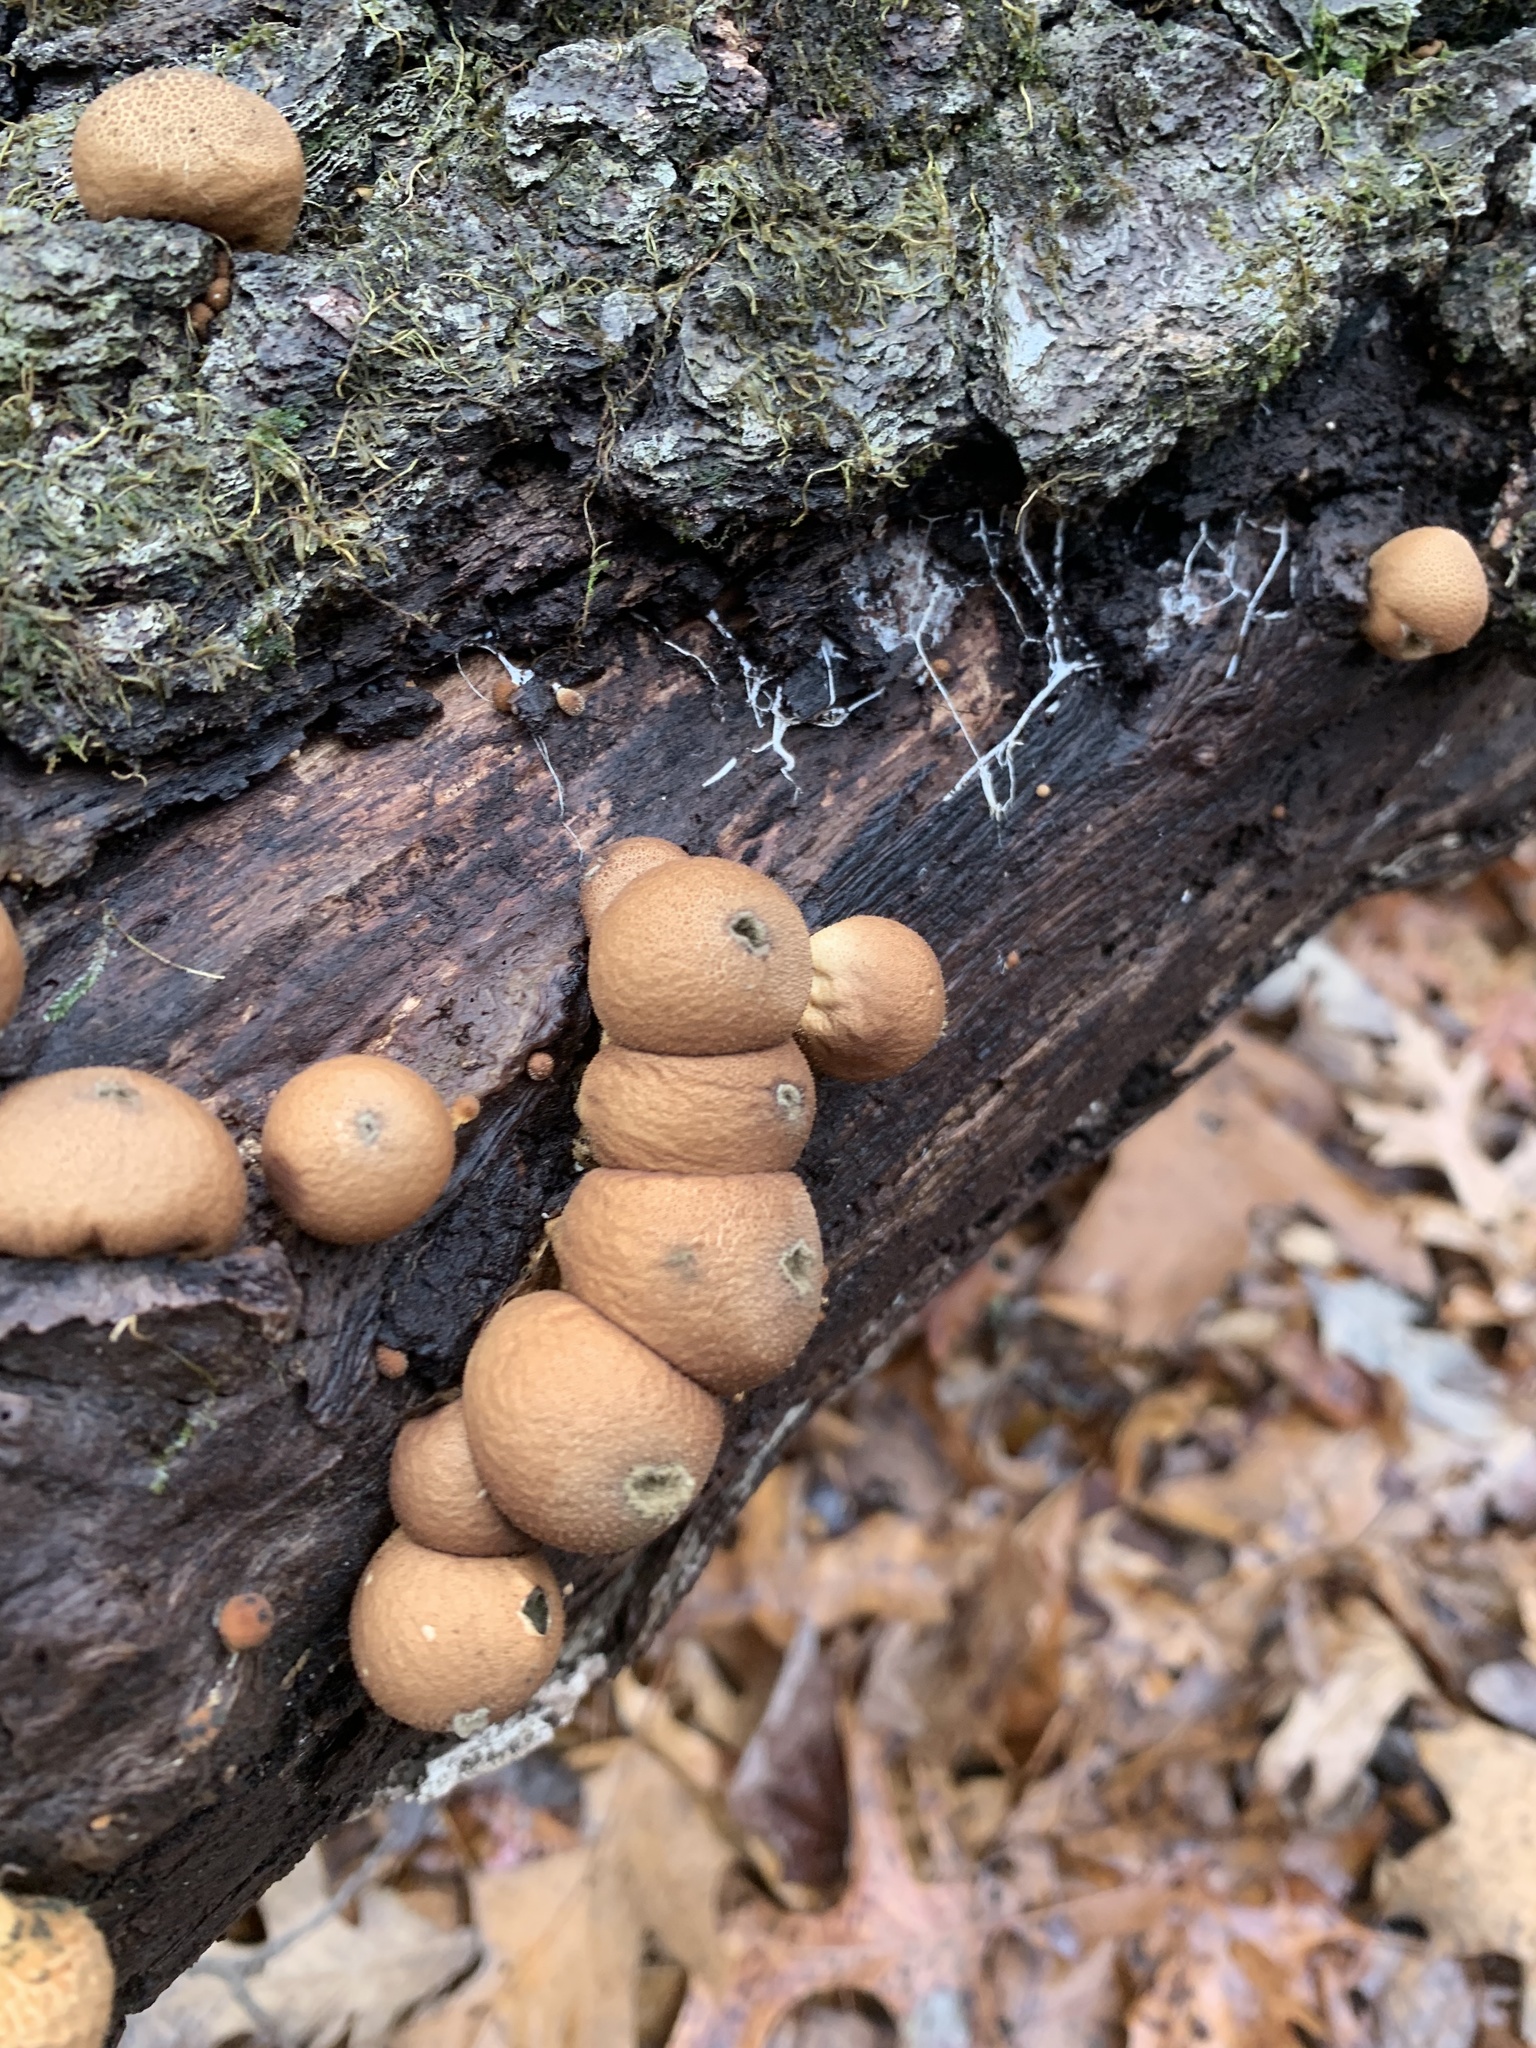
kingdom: Fungi
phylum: Basidiomycota
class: Agaricomycetes
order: Agaricales
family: Lycoperdaceae
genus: Apioperdon
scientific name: Apioperdon pyriforme
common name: Pear-shaped puffball
